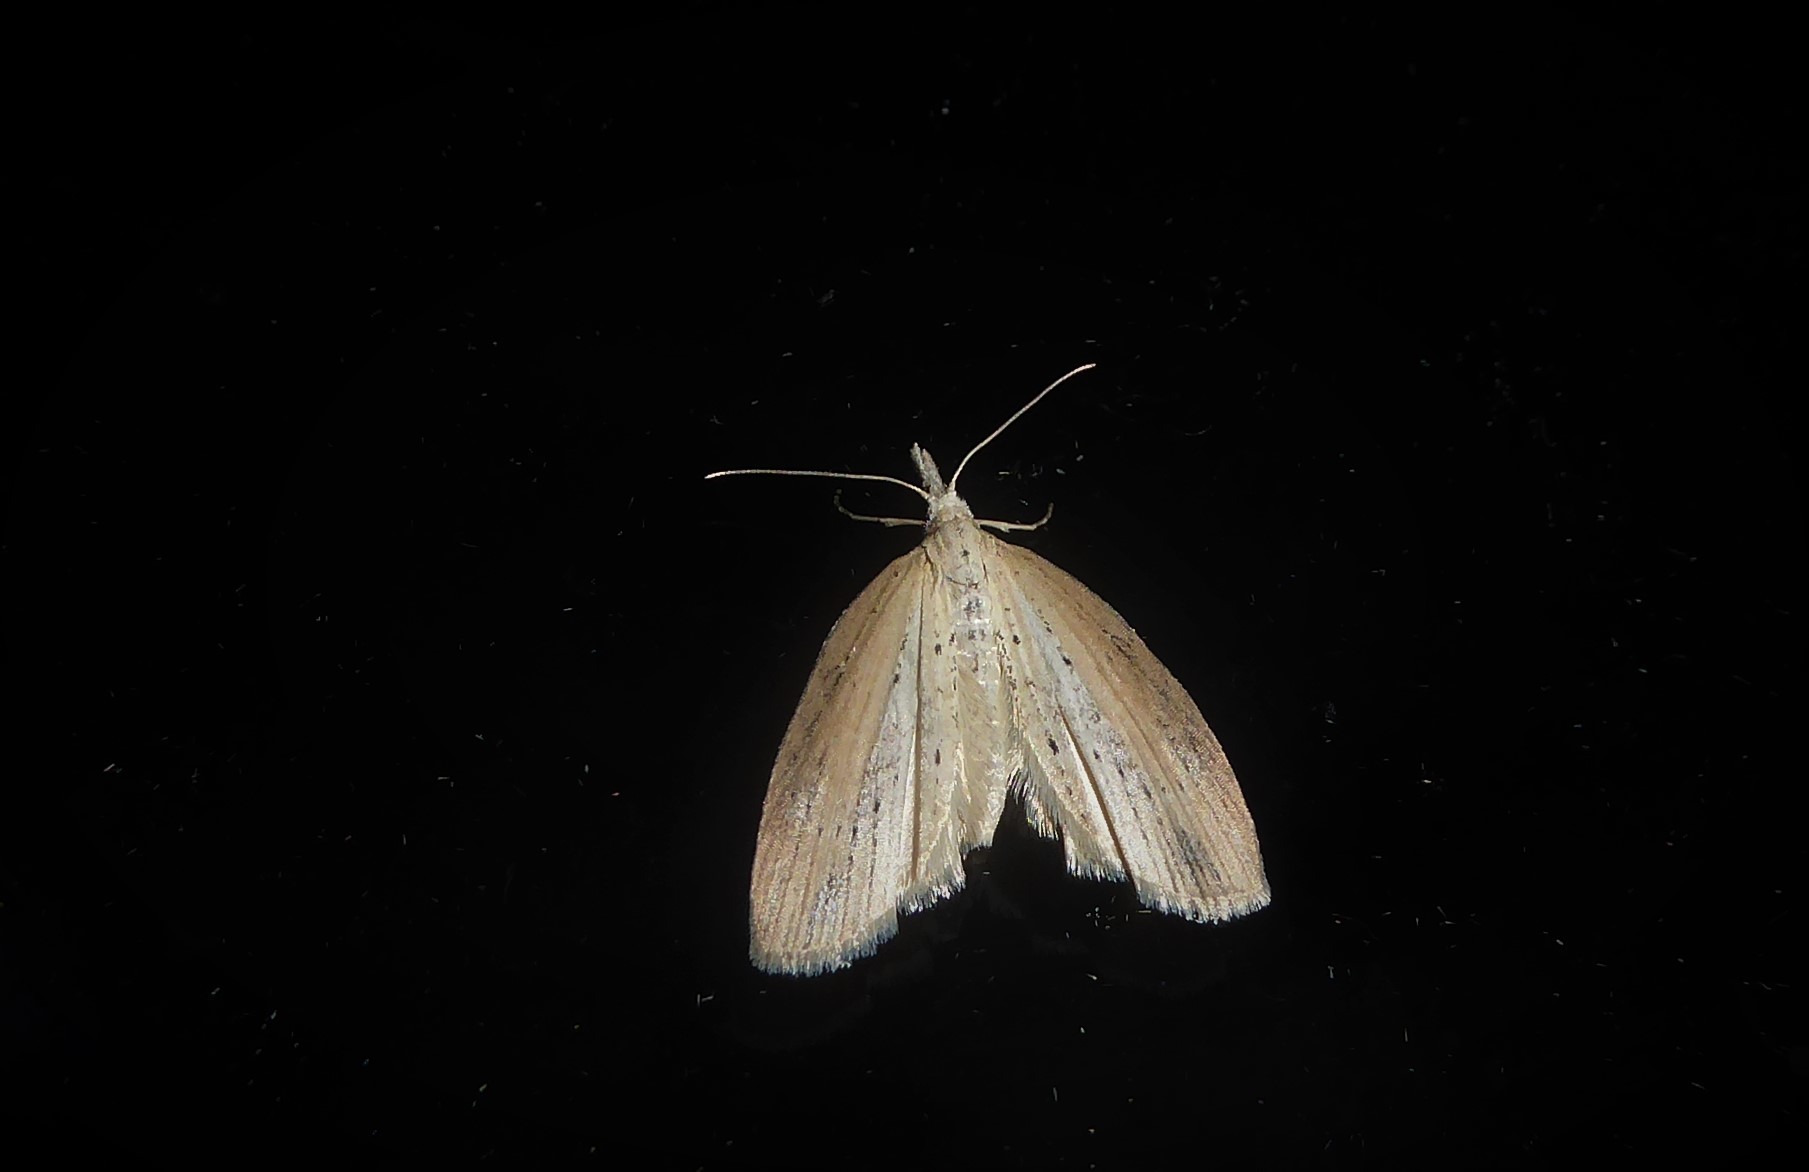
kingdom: Animalia
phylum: Arthropoda
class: Insecta
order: Lepidoptera
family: Geometridae
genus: Microdes
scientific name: Microdes epicryptis
